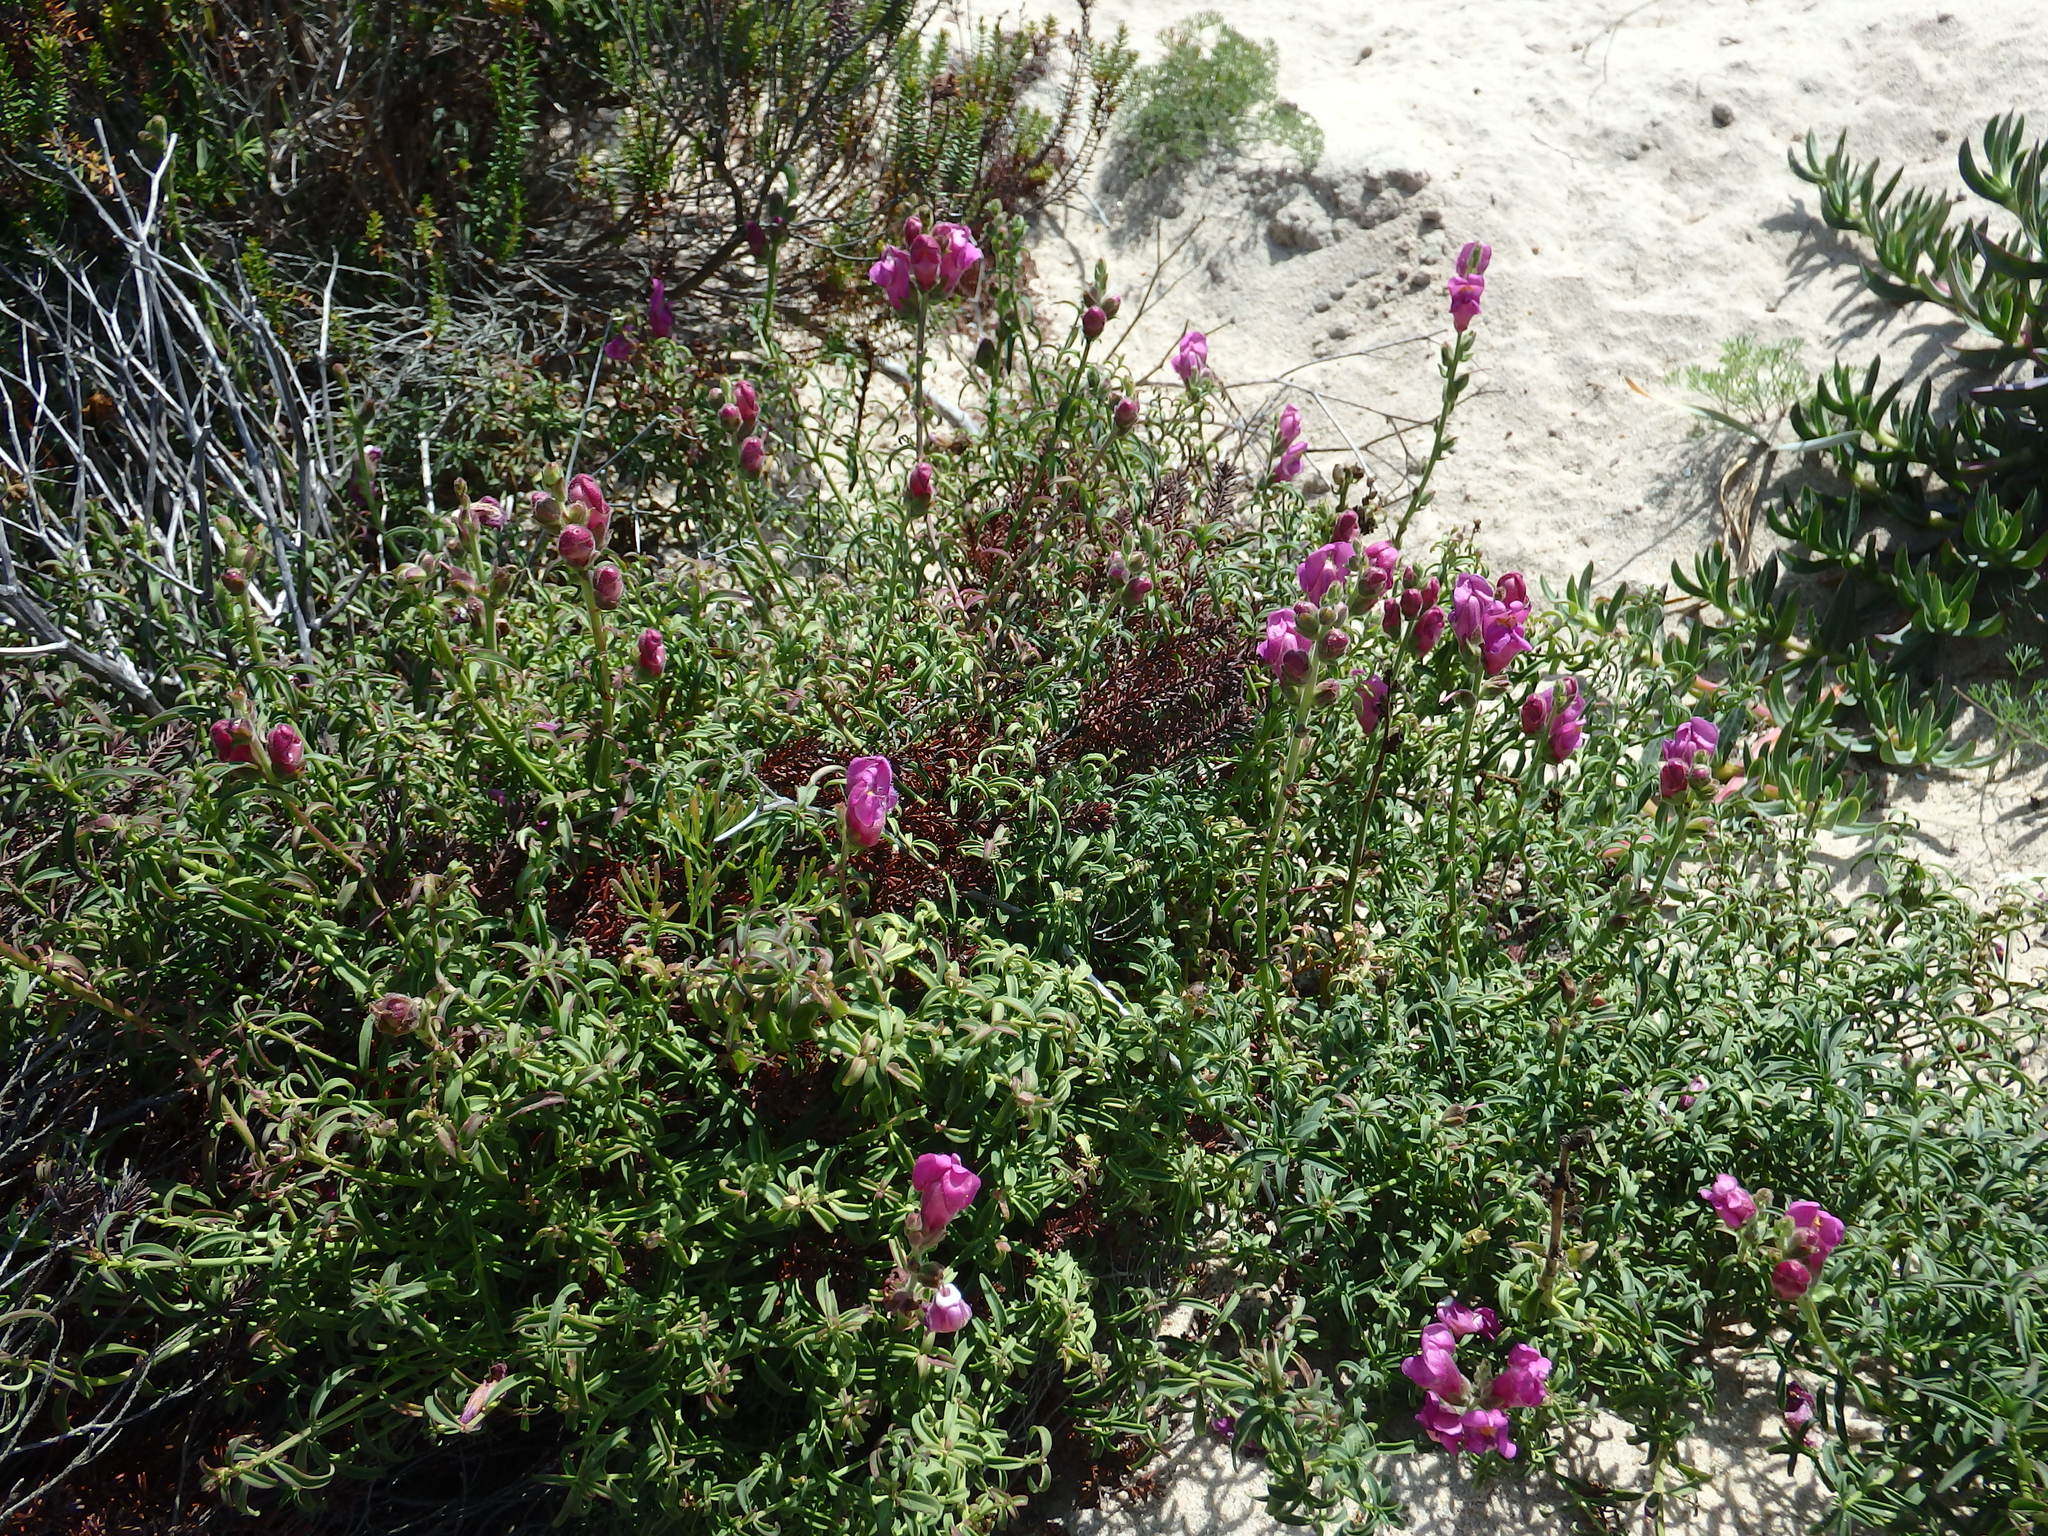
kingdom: Plantae
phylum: Tracheophyta
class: Magnoliopsida
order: Lamiales
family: Plantaginaceae
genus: Antirrhinum
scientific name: Antirrhinum cirrhigerum
